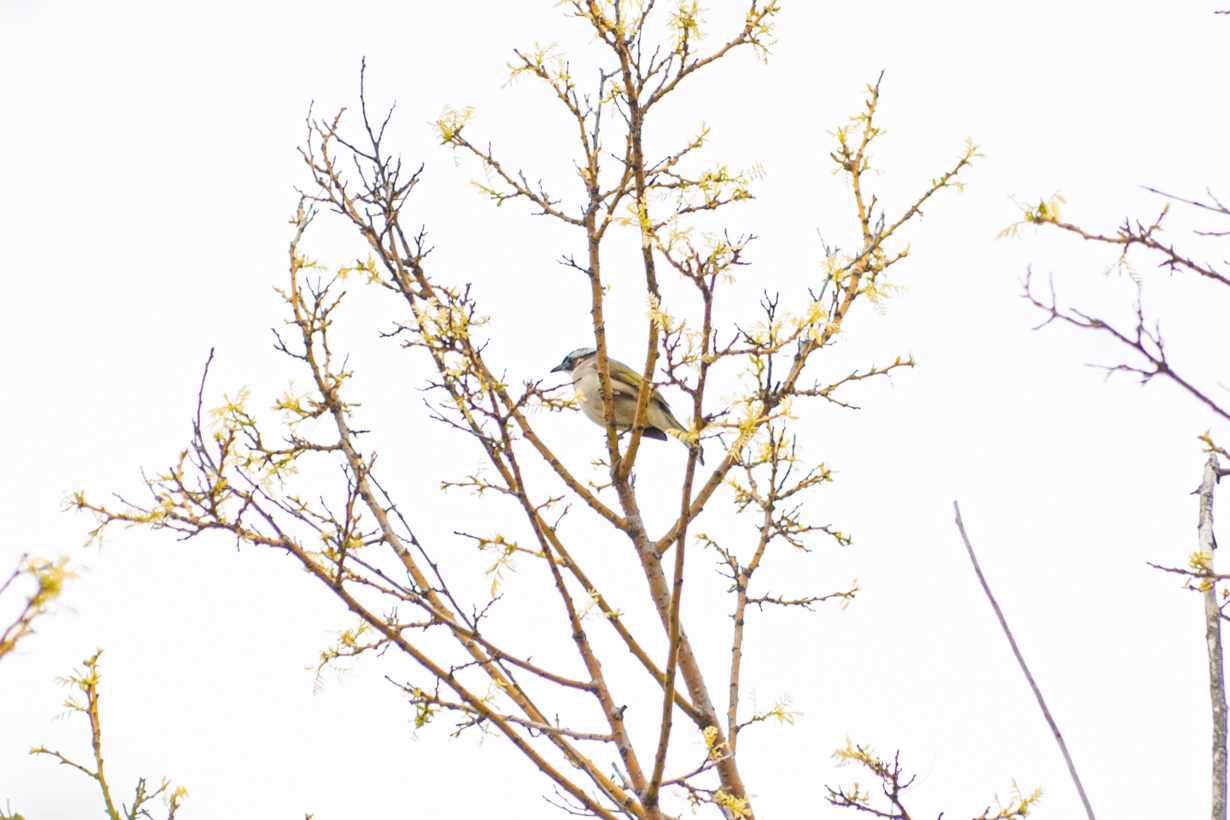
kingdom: Animalia
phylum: Chordata
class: Aves
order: Passeriformes
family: Pycnonotidae
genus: Pycnonotus
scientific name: Pycnonotus sinensis
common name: Light-vented bulbul
